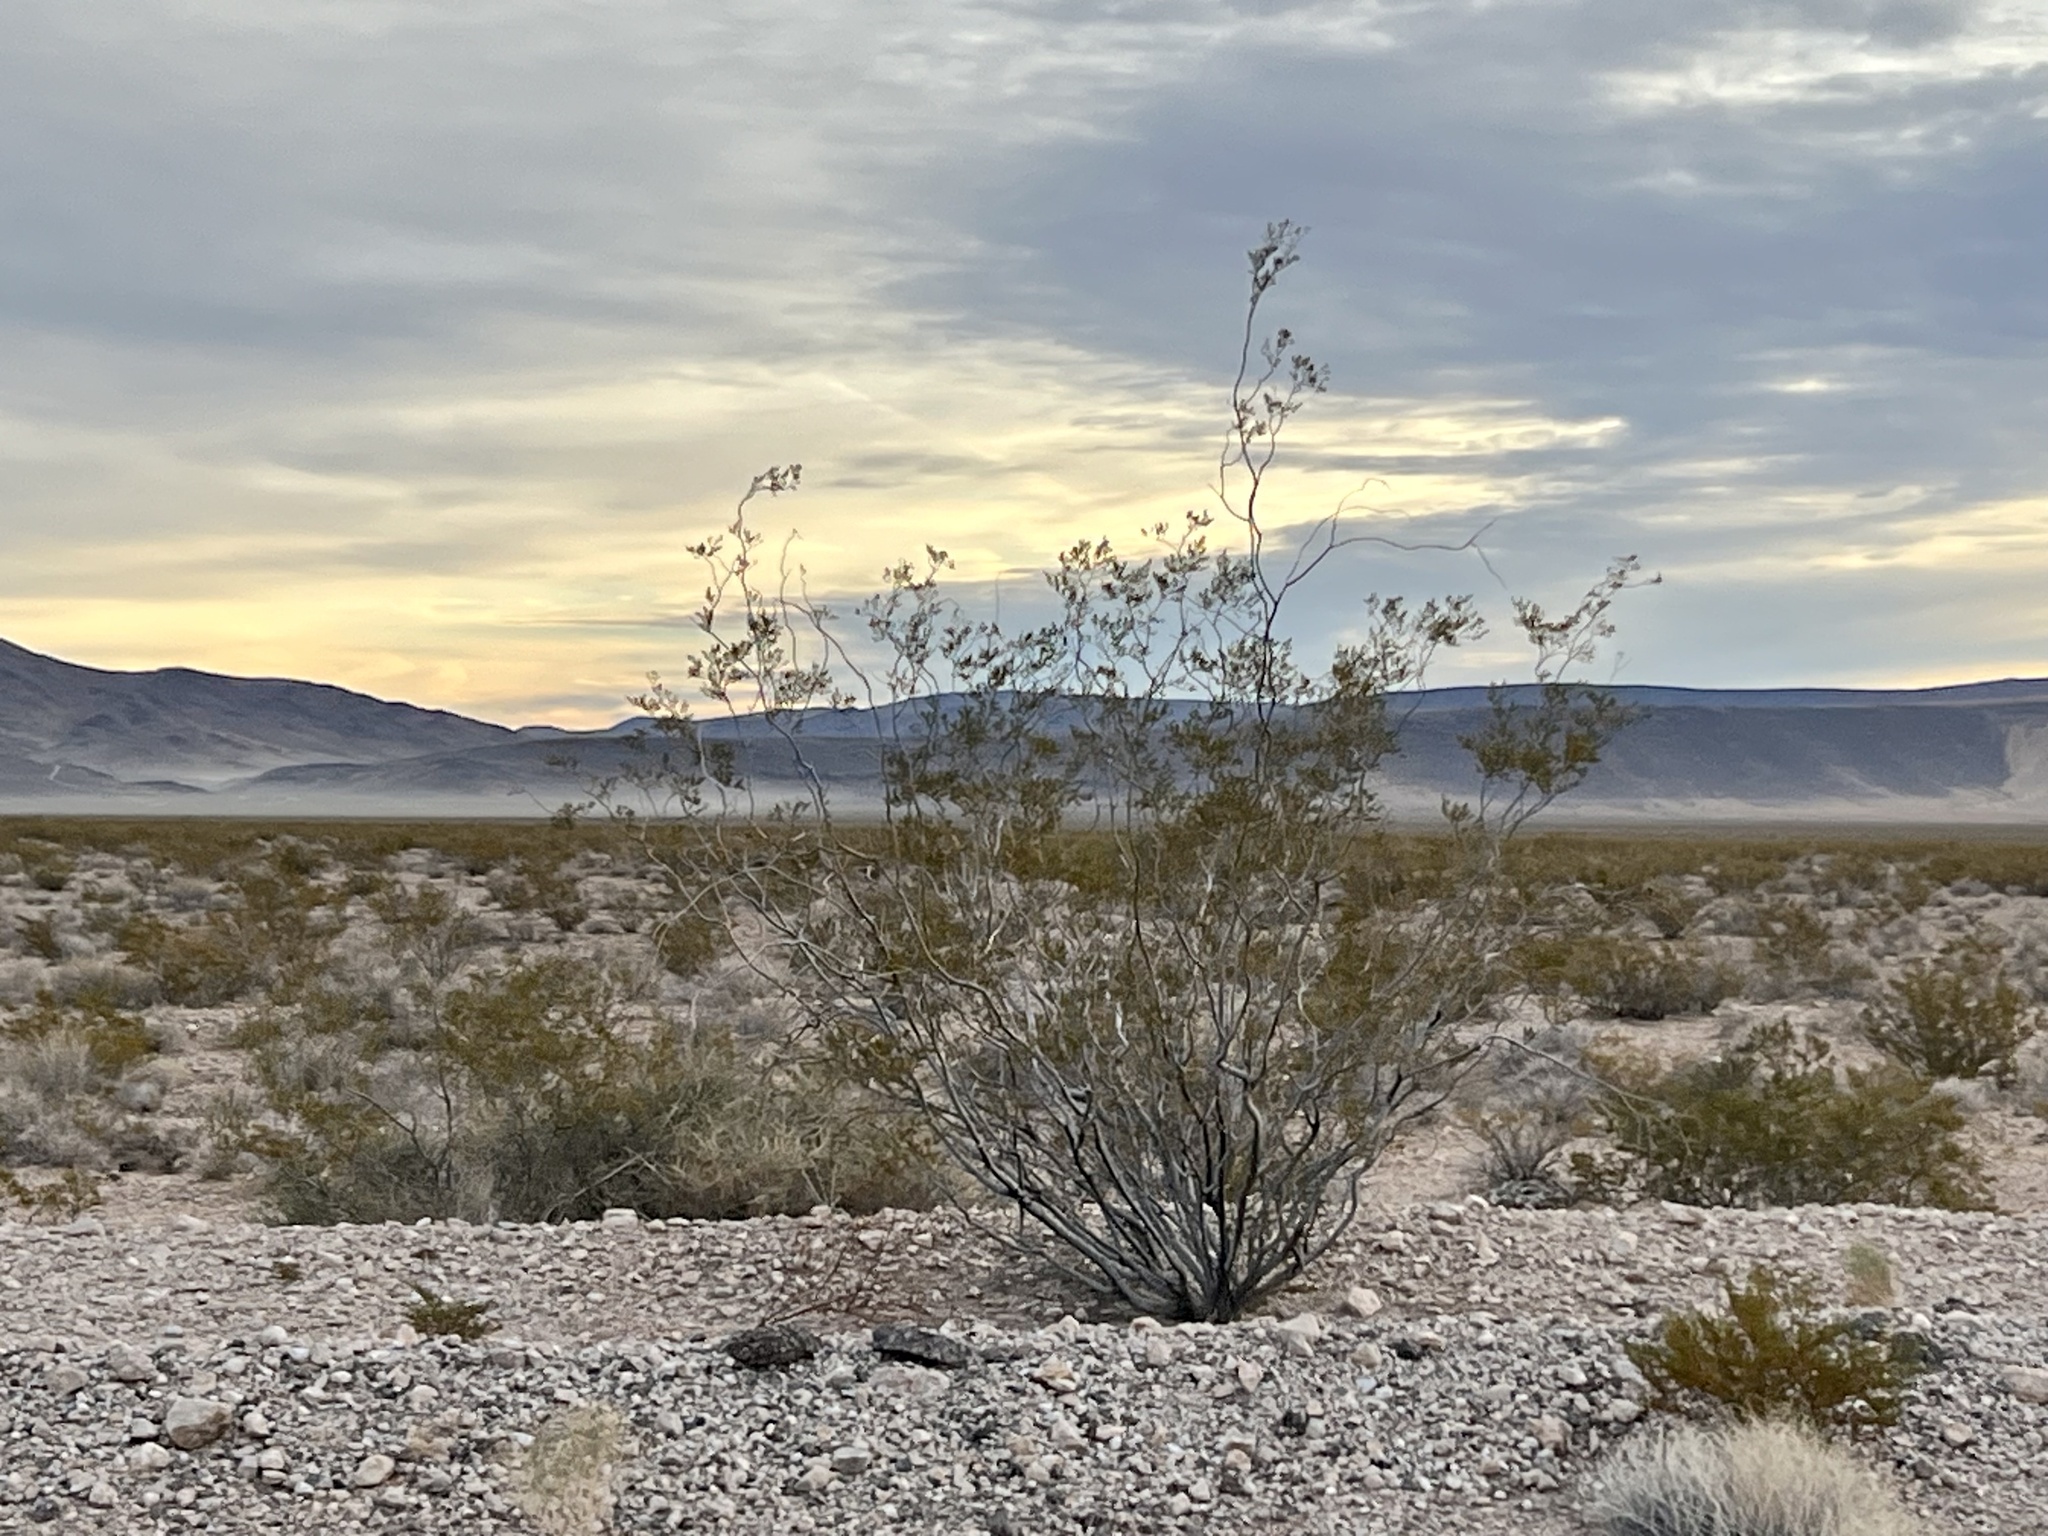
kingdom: Plantae
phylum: Tracheophyta
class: Magnoliopsida
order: Zygophyllales
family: Zygophyllaceae
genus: Larrea
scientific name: Larrea tridentata
